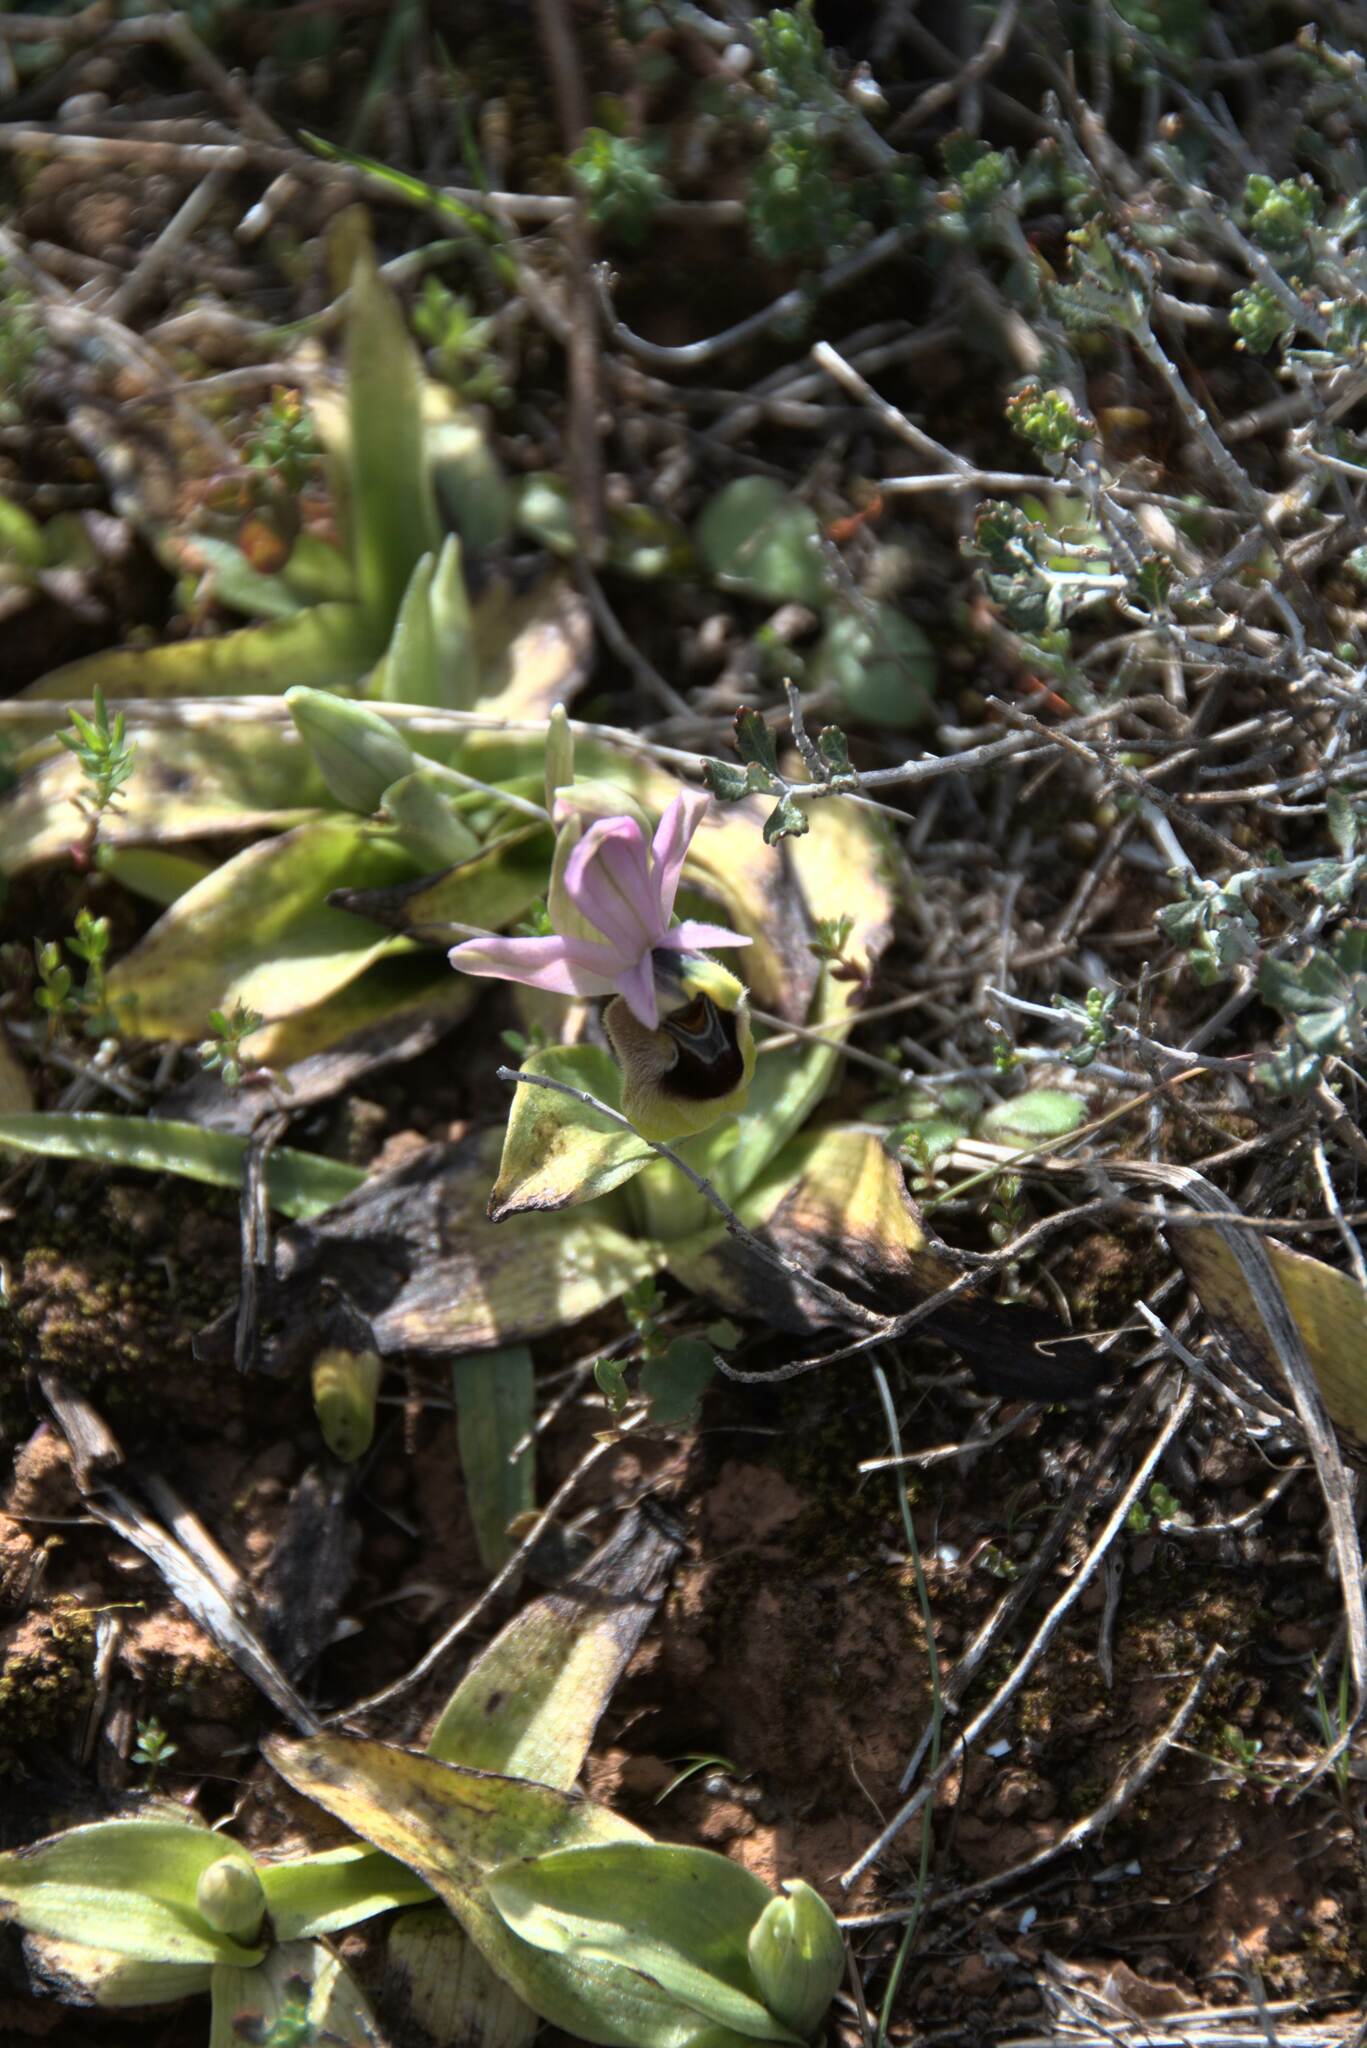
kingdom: Plantae
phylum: Tracheophyta
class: Liliopsida
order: Asparagales
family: Orchidaceae
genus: Ophrys
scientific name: Ophrys tenthredinifera
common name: Sawfly orchid
